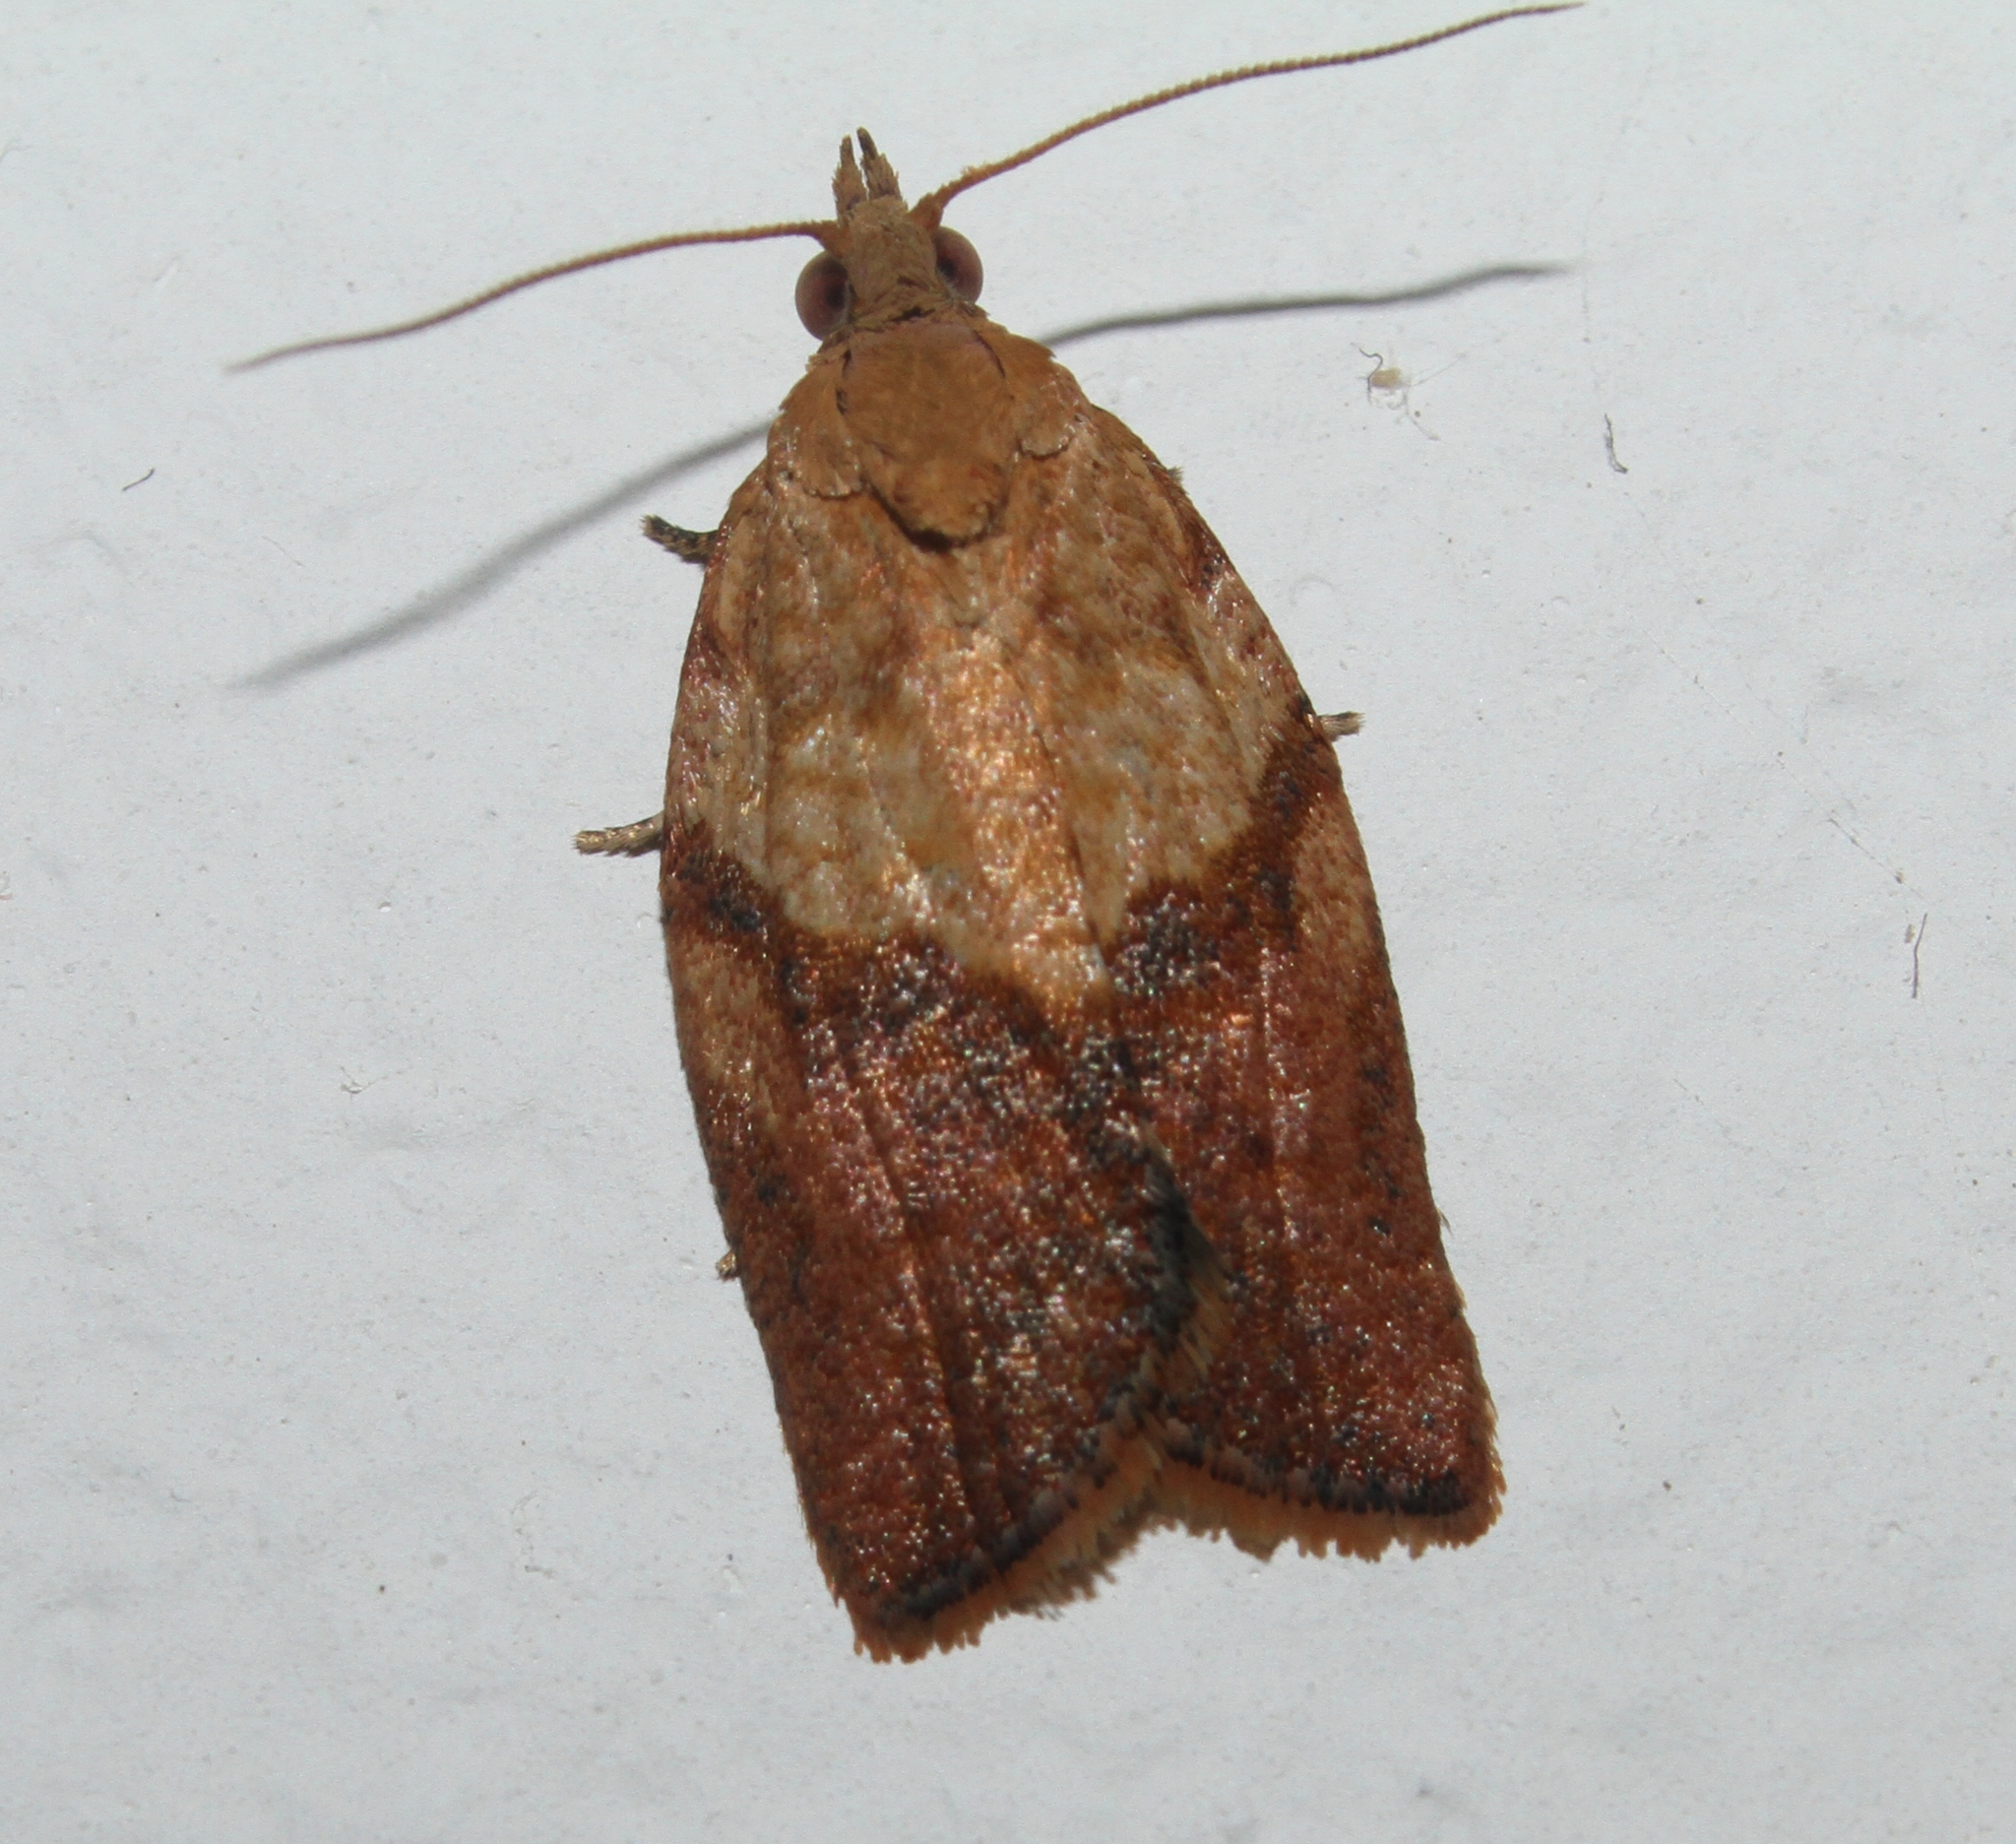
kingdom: Animalia
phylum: Arthropoda
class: Insecta
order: Lepidoptera
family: Tortricidae
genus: Epiphyas
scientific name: Epiphyas postvittana
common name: Light brown apple moth
